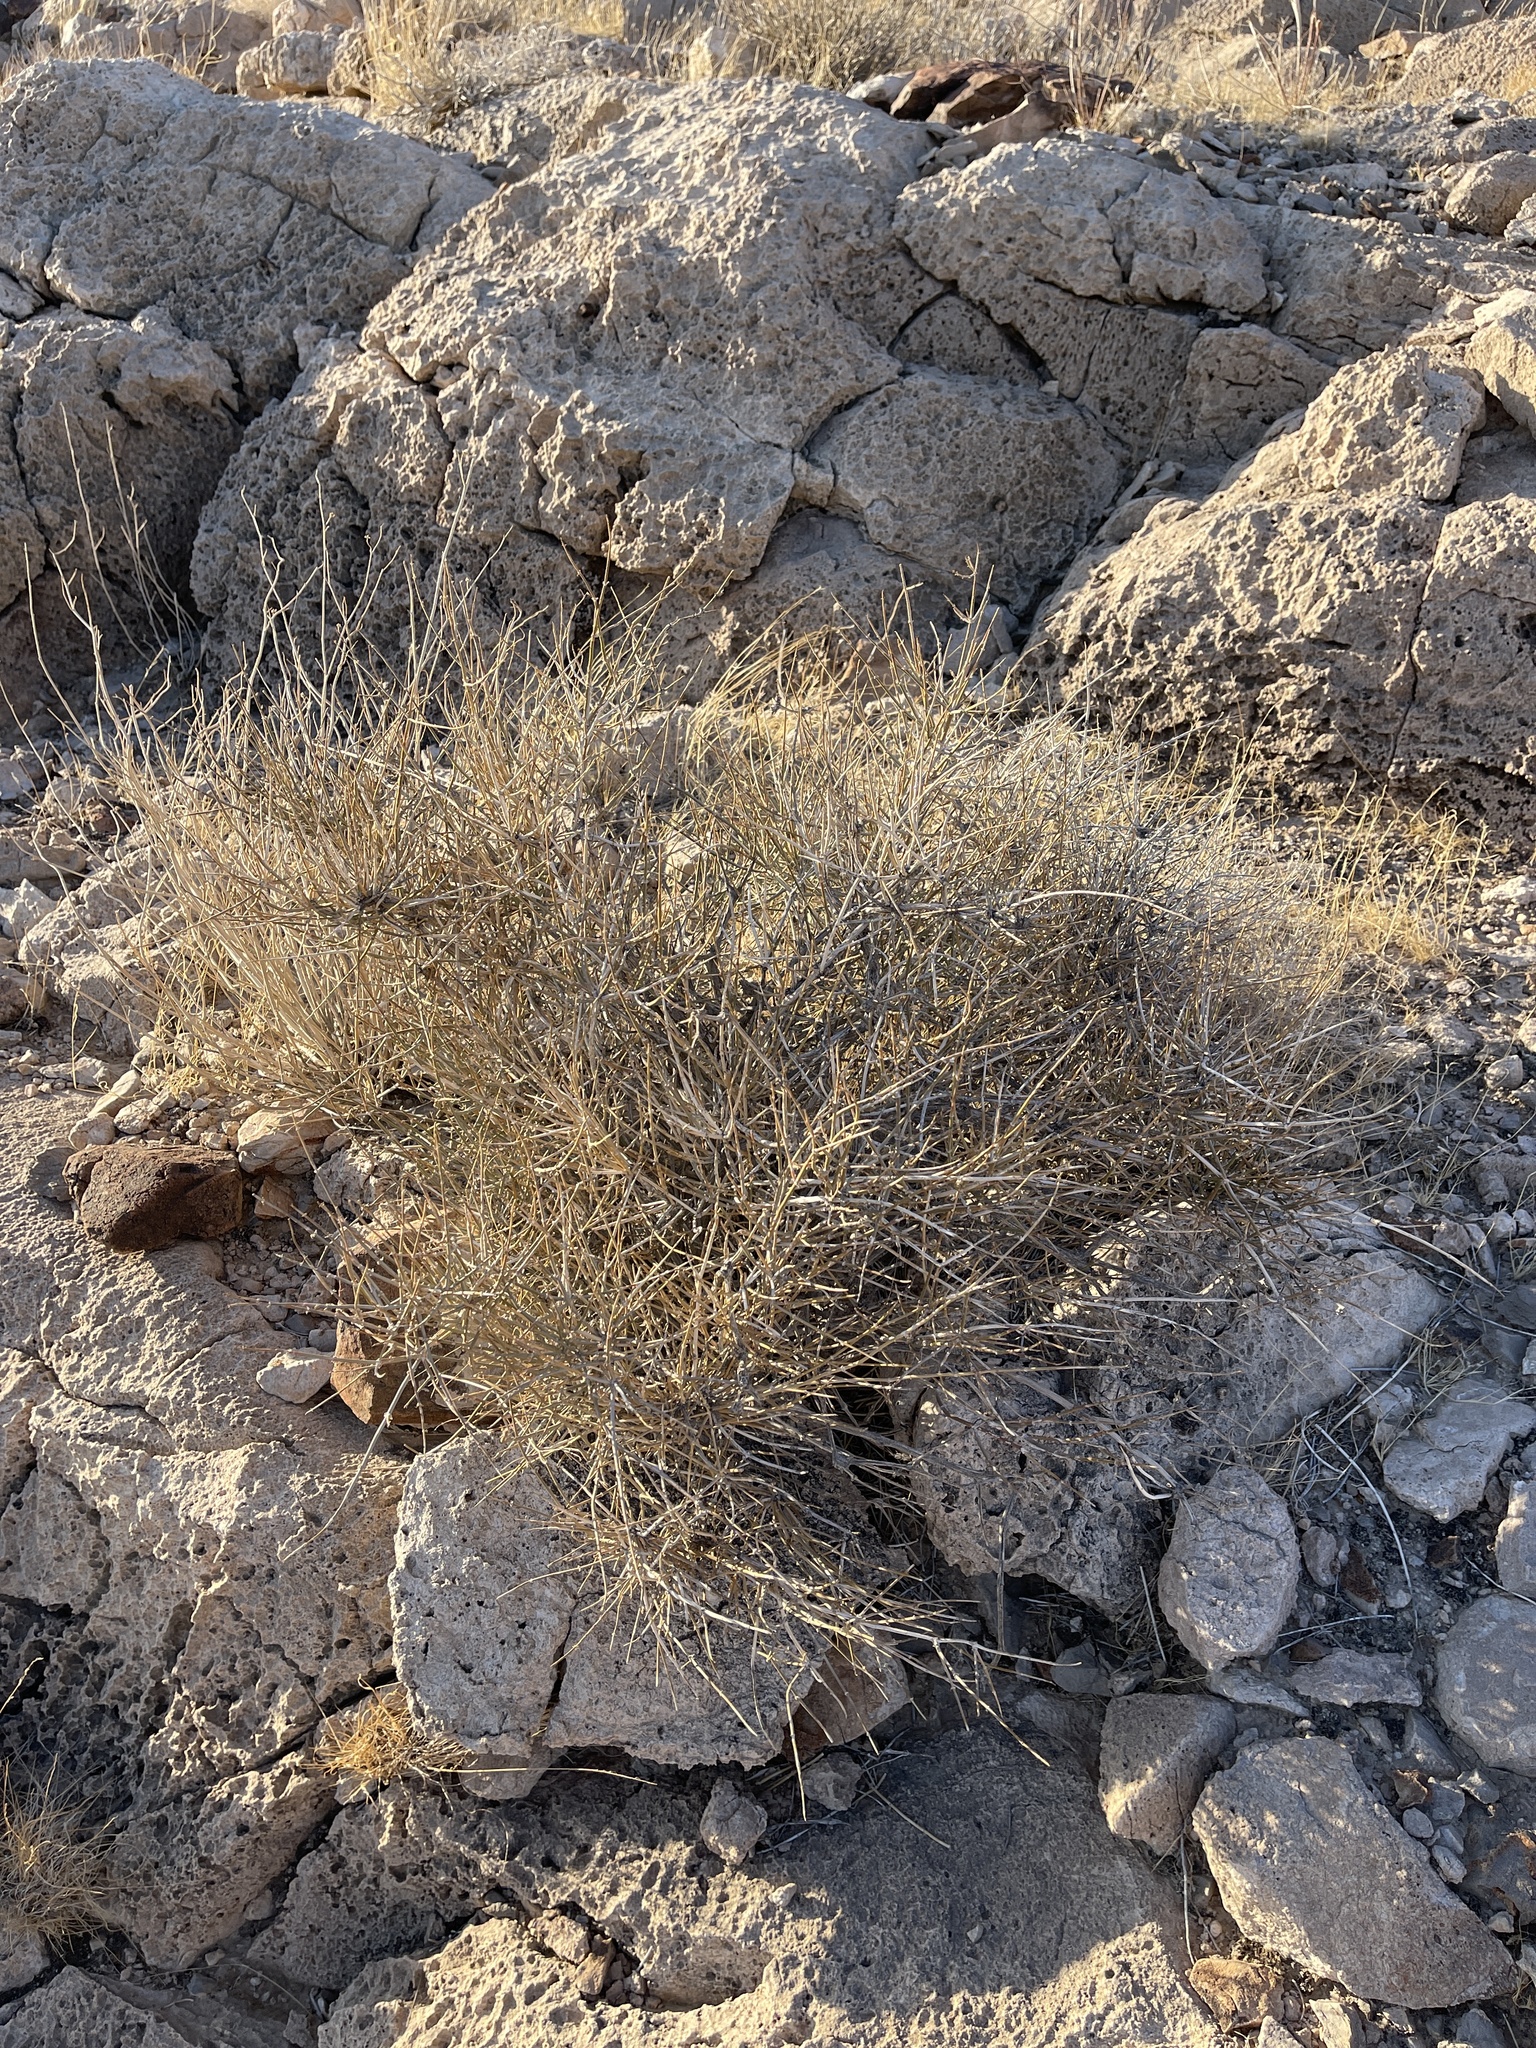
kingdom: Plantae
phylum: Tracheophyta
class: Gnetopsida
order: Ephedrales
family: Ephedraceae
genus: Ephedra
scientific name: Ephedra nevadensis
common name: Gray ephedra
